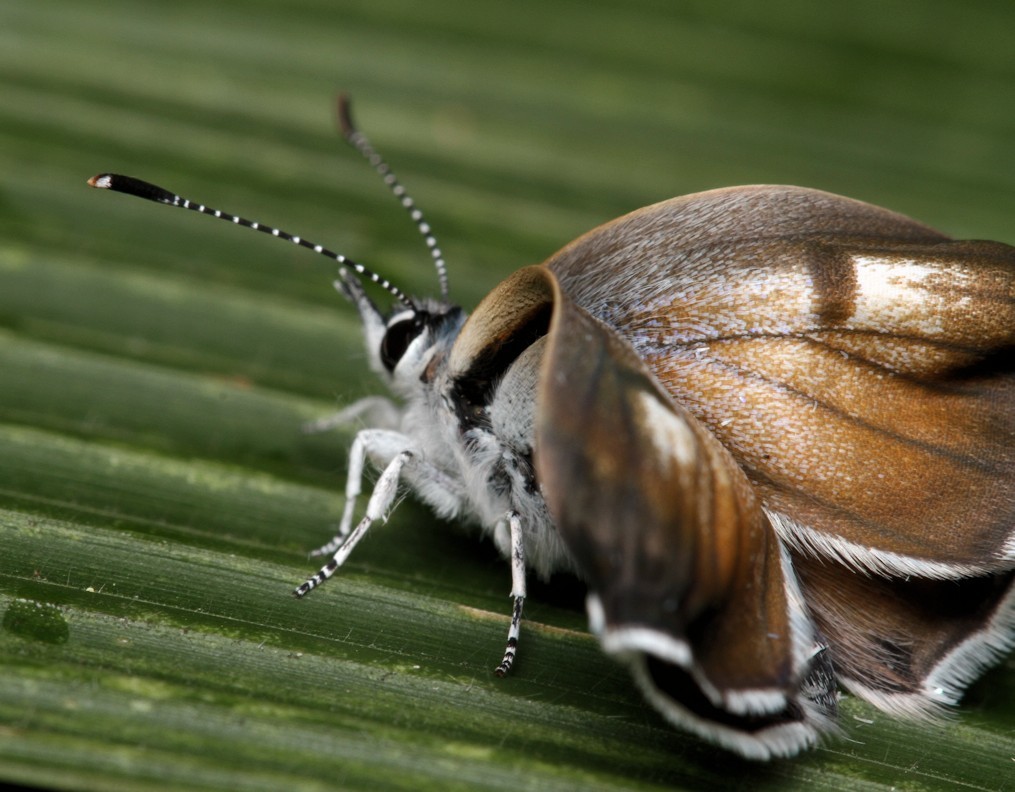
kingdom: Animalia
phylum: Arthropoda
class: Insecta
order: Lepidoptera
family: Lycaenidae
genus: Azanus
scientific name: Azanus jesous
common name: African babul blue
